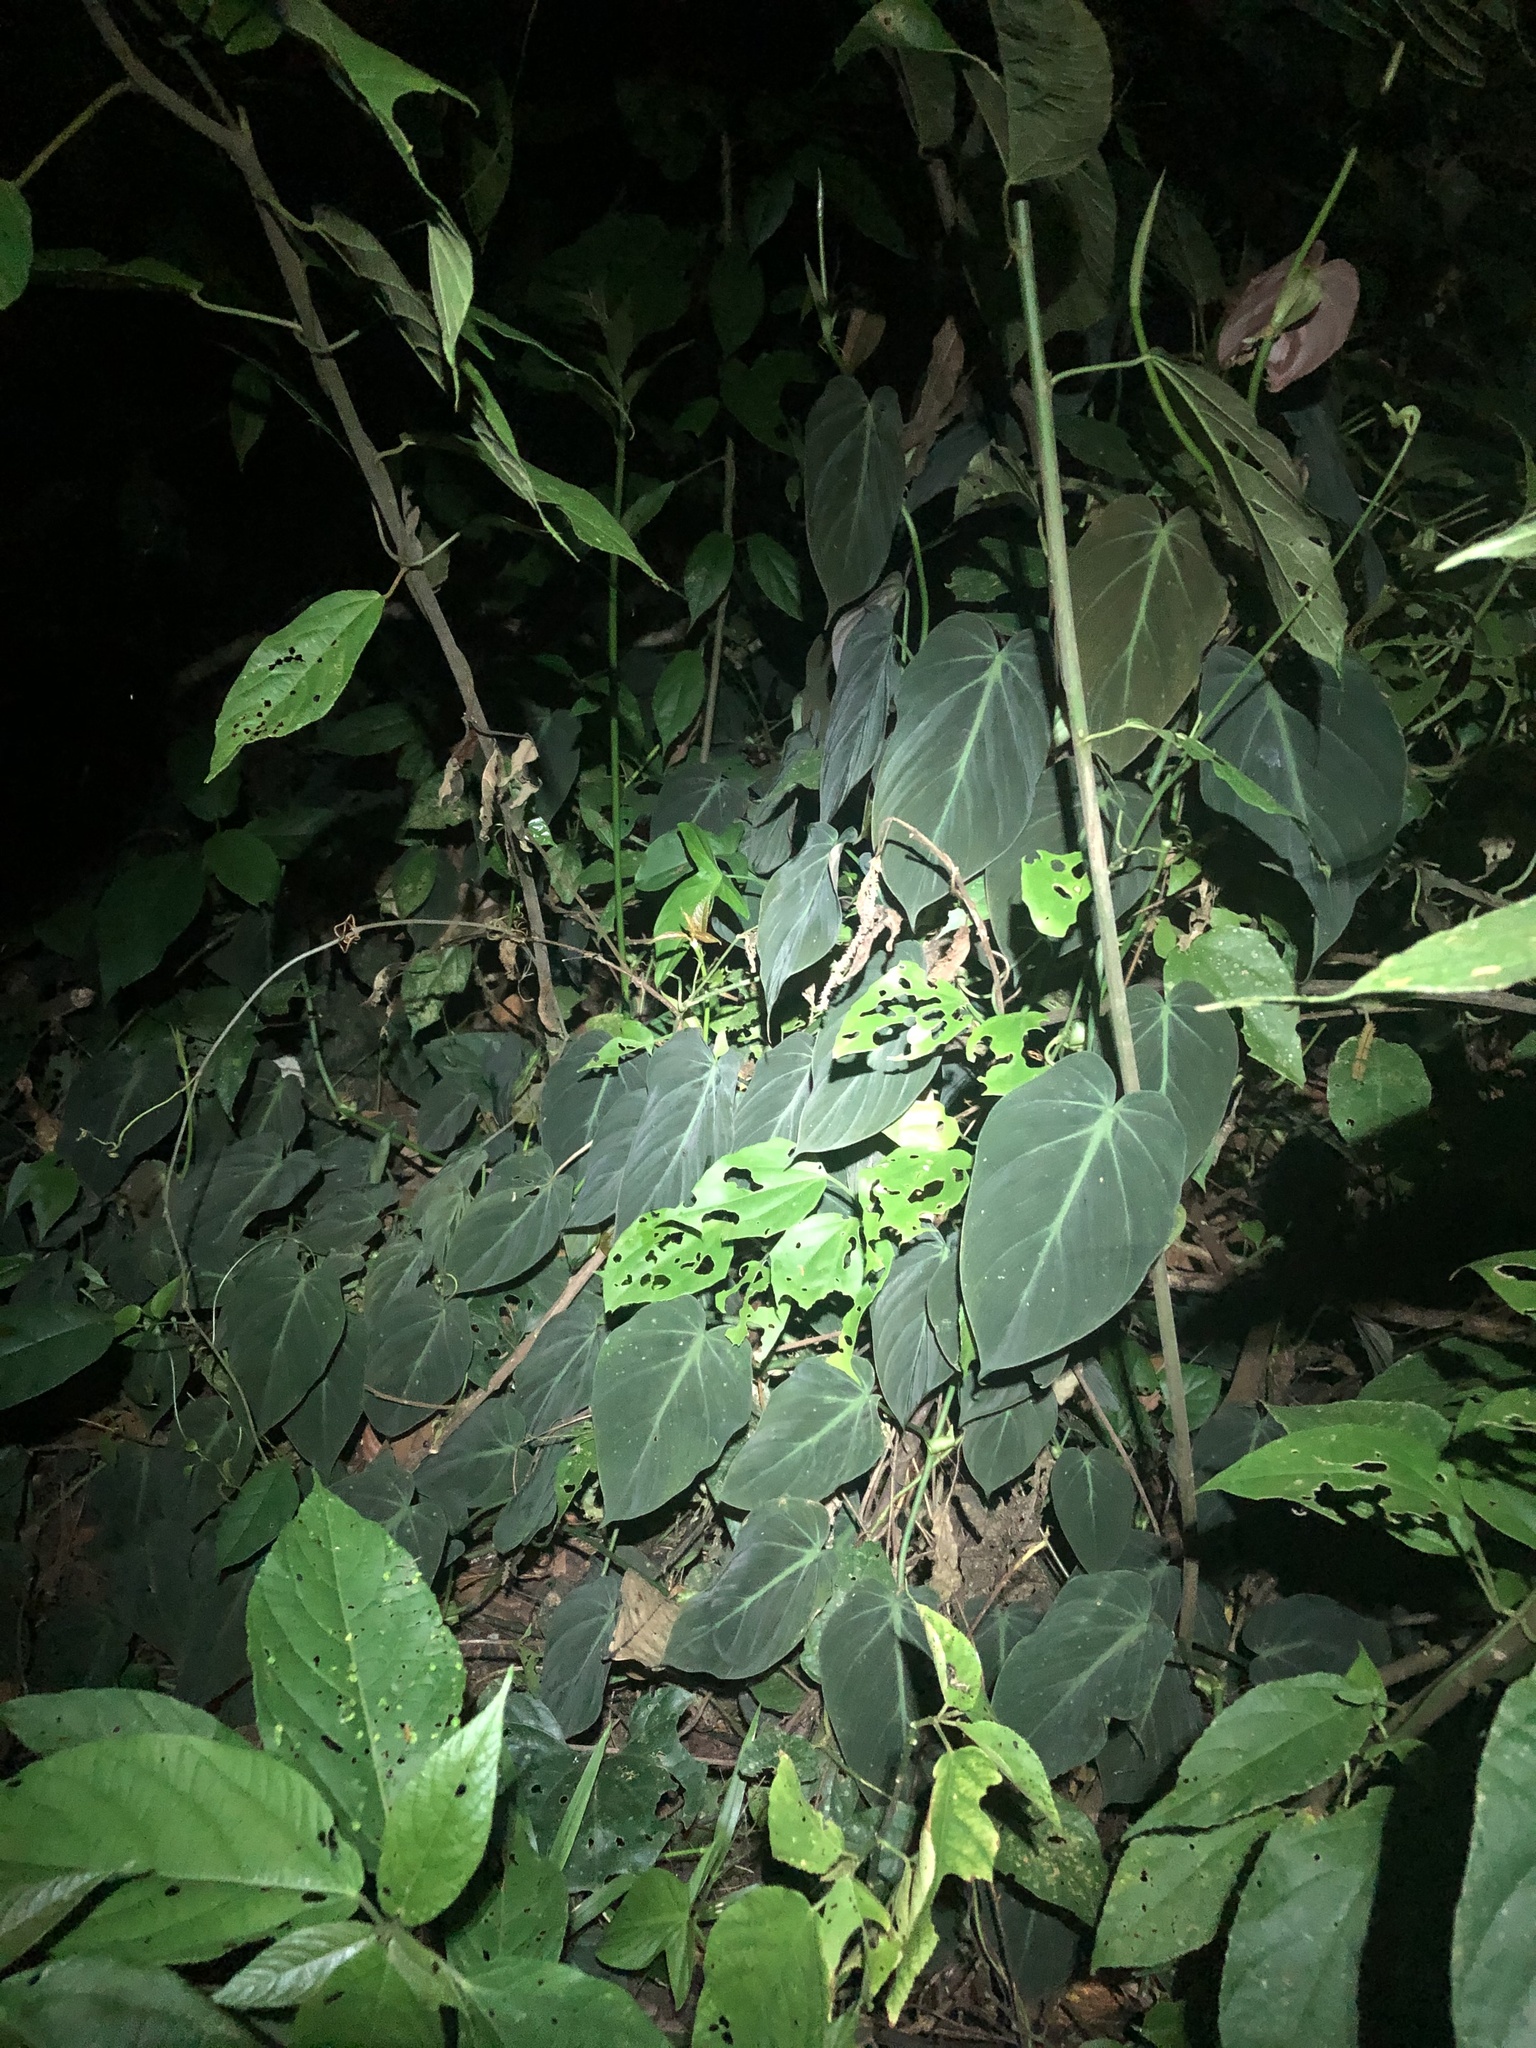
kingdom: Plantae
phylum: Tracheophyta
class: Liliopsida
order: Alismatales
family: Araceae
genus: Philodendron
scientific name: Philodendron hederaceum
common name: Vilevine
